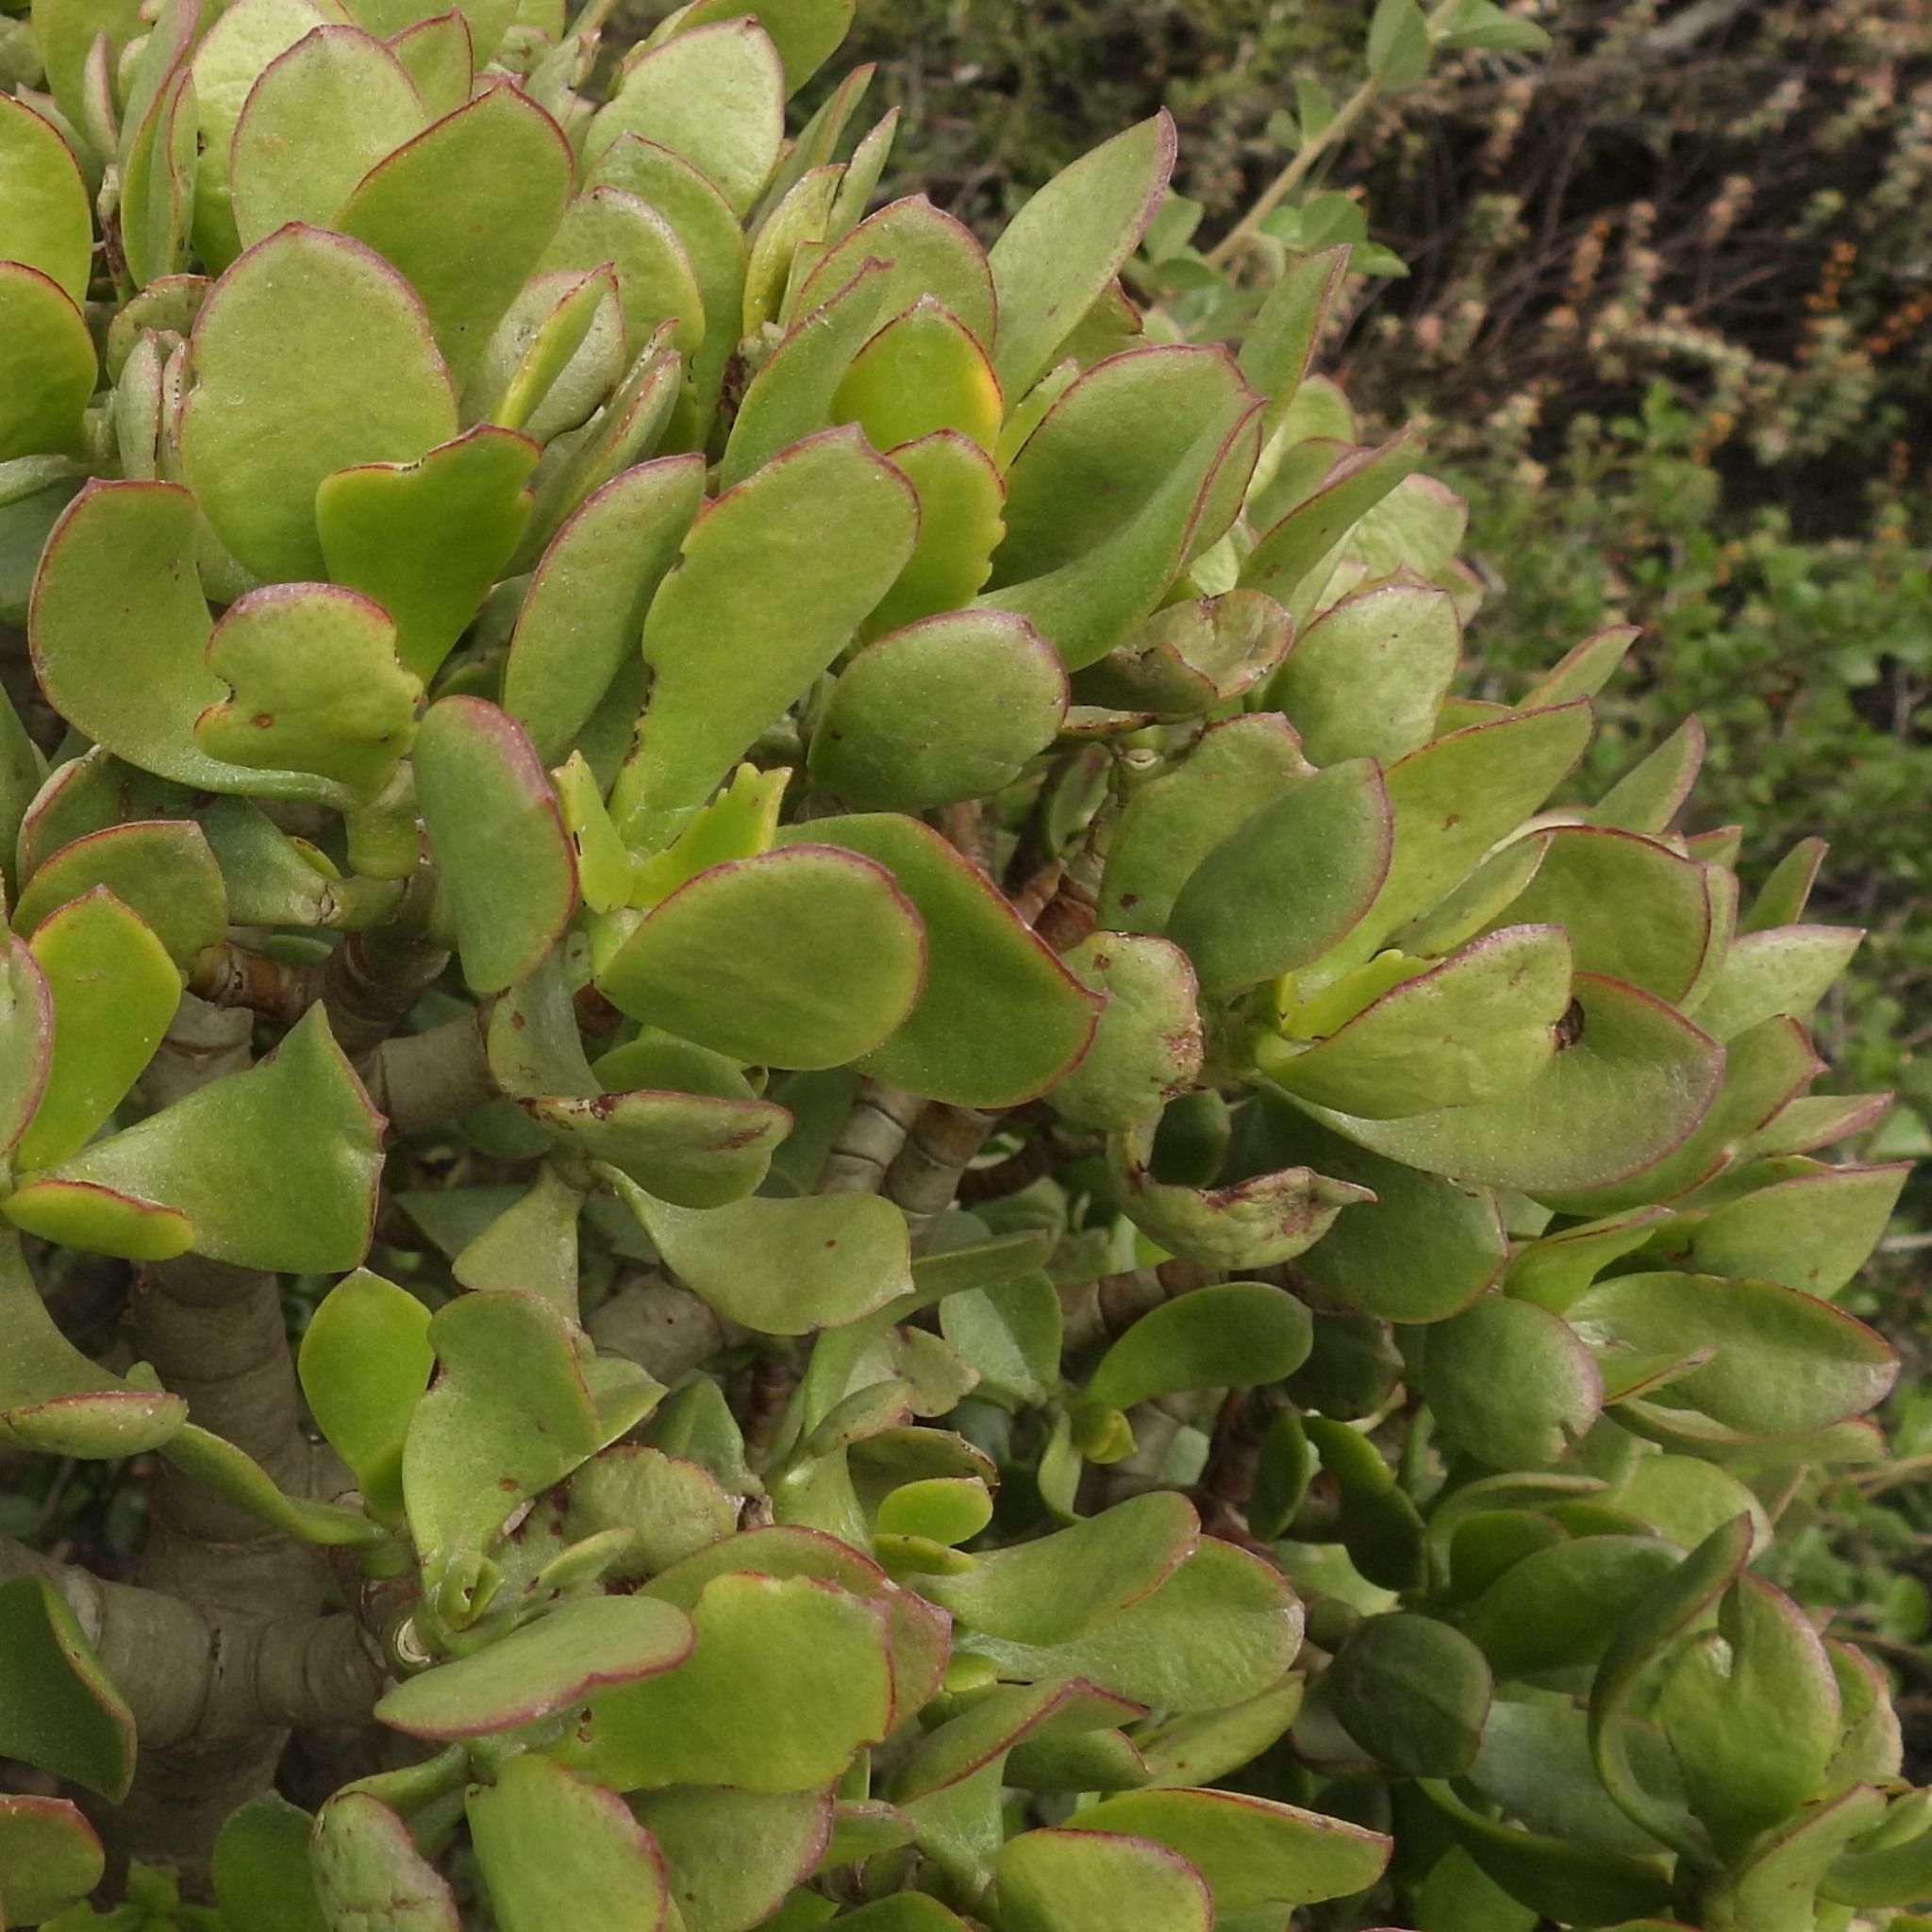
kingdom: Plantae
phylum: Tracheophyta
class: Magnoliopsida
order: Saxifragales
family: Crassulaceae
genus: Crassula
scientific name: Crassula ovata
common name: Jade plant
